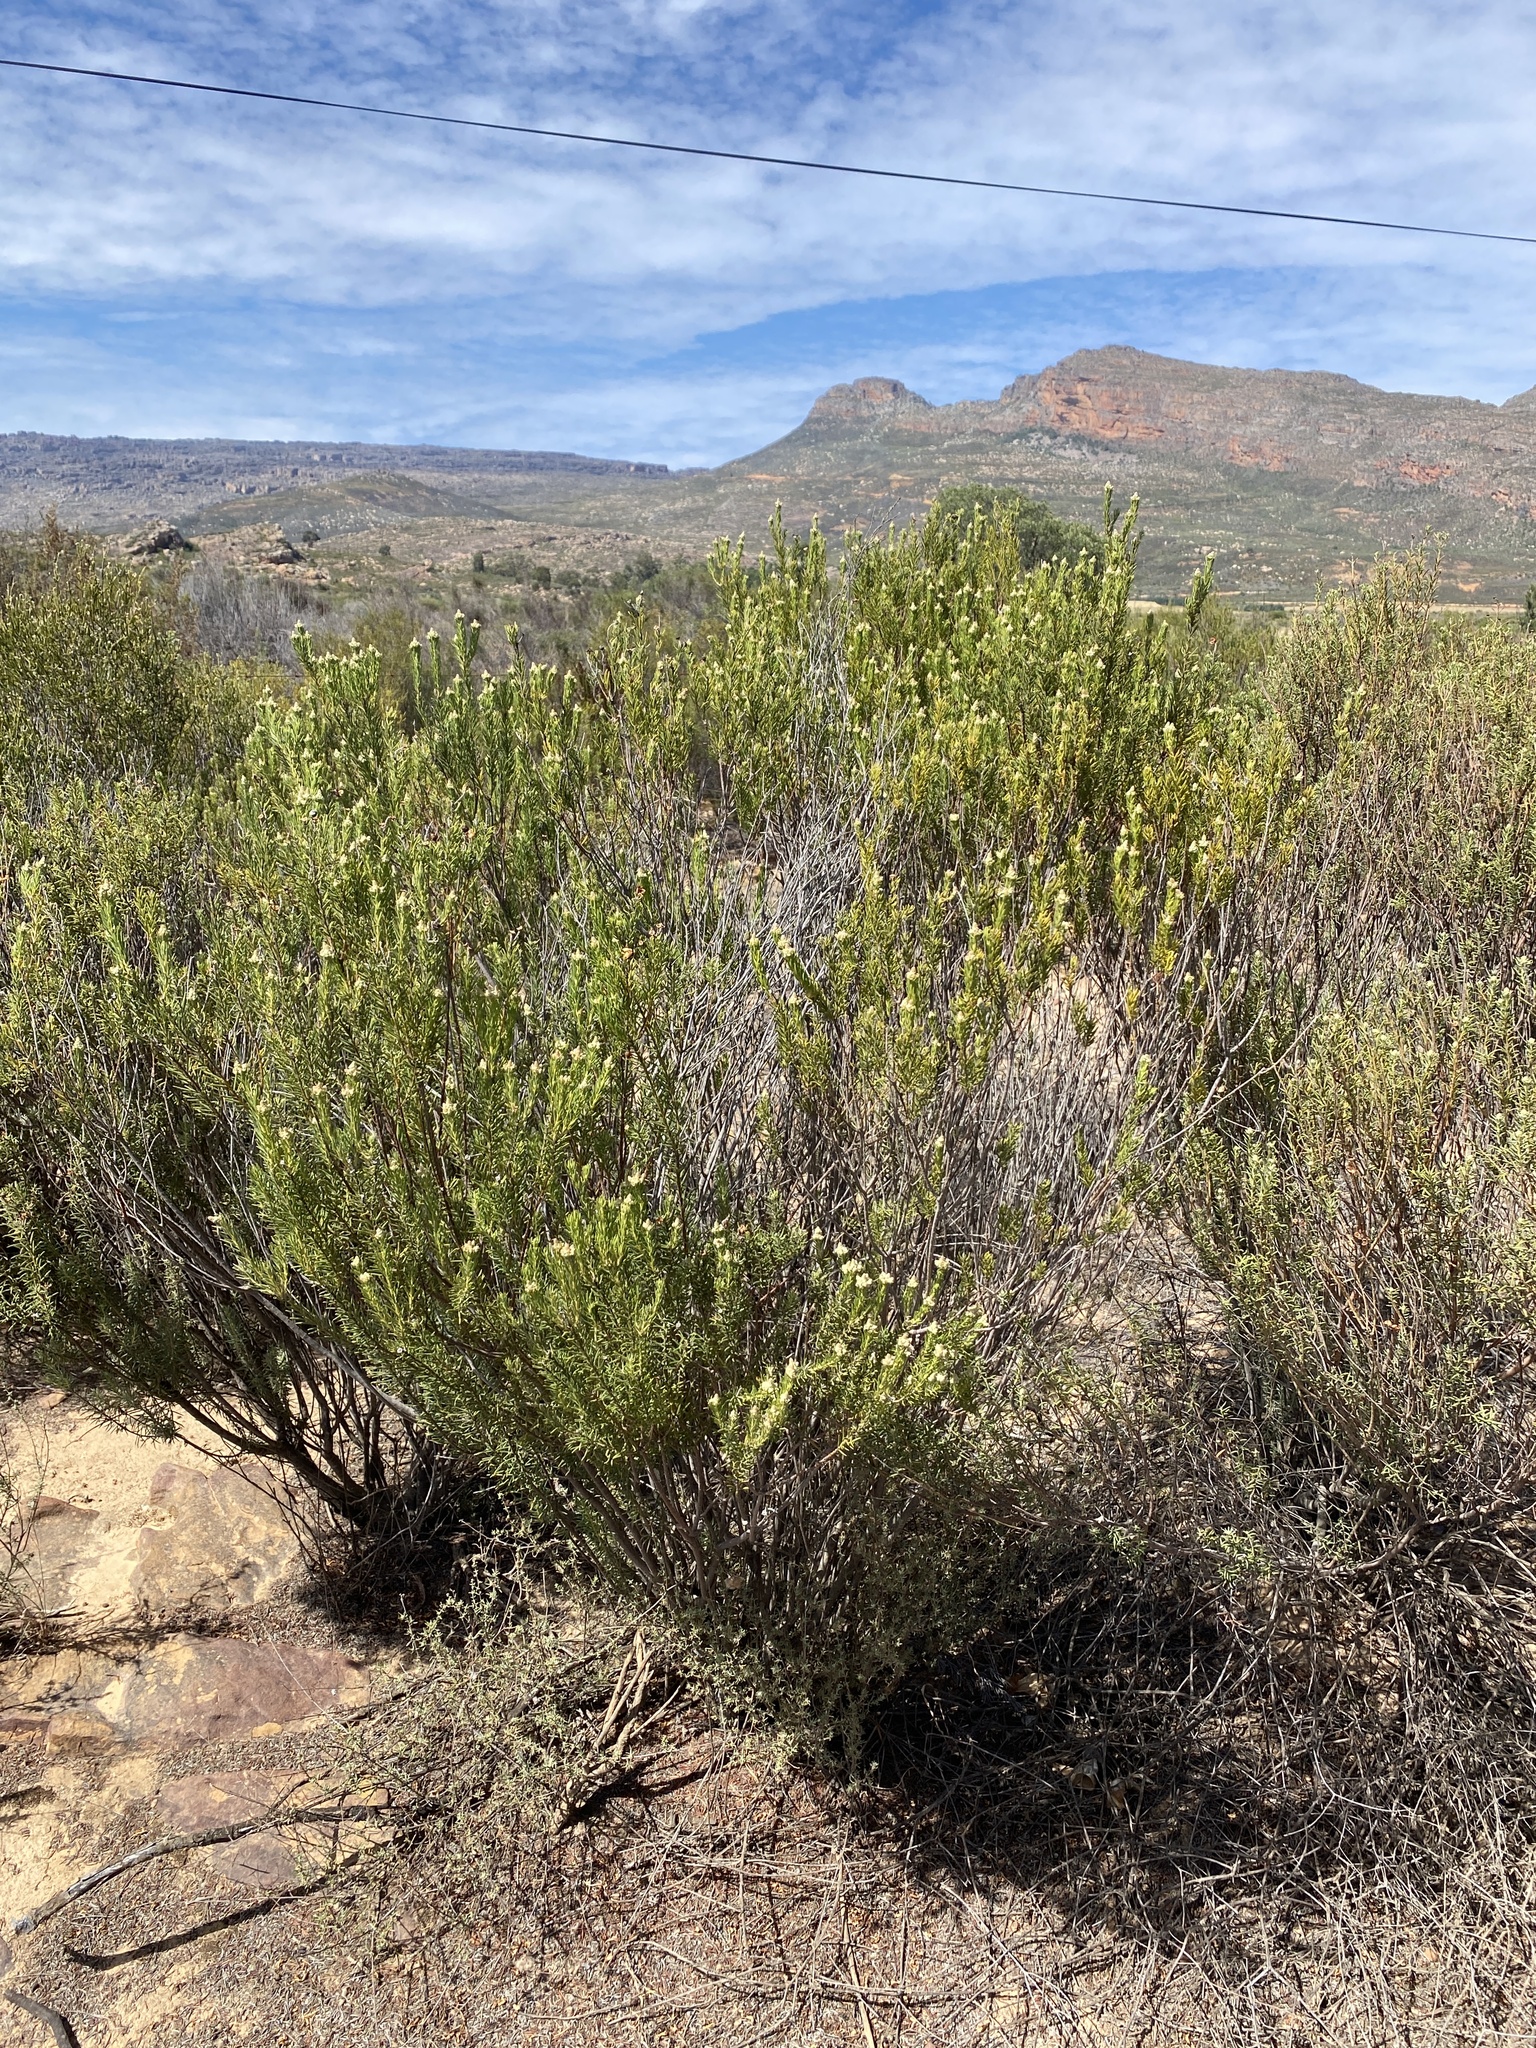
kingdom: Plantae
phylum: Tracheophyta
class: Magnoliopsida
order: Rosales
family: Rhamnaceae
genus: Phylica
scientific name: Phylica rigidifolia
